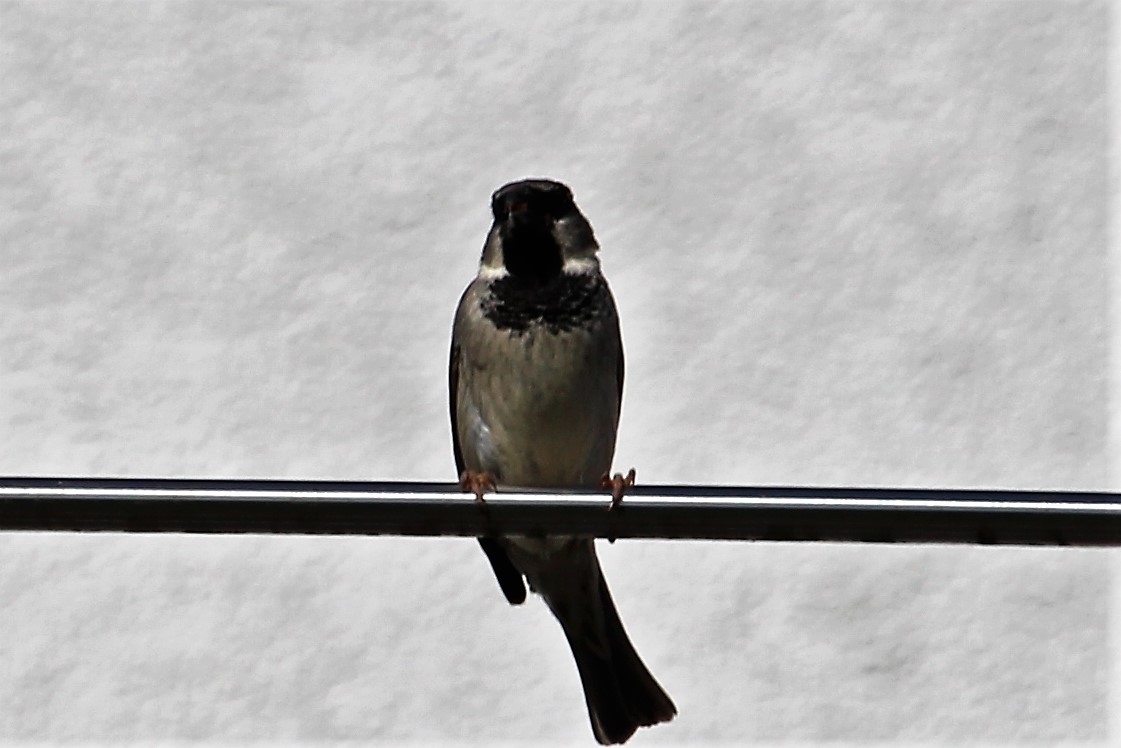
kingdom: Animalia
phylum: Chordata
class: Aves
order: Passeriformes
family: Passeridae
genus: Passer
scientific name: Passer domesticus
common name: House sparrow
